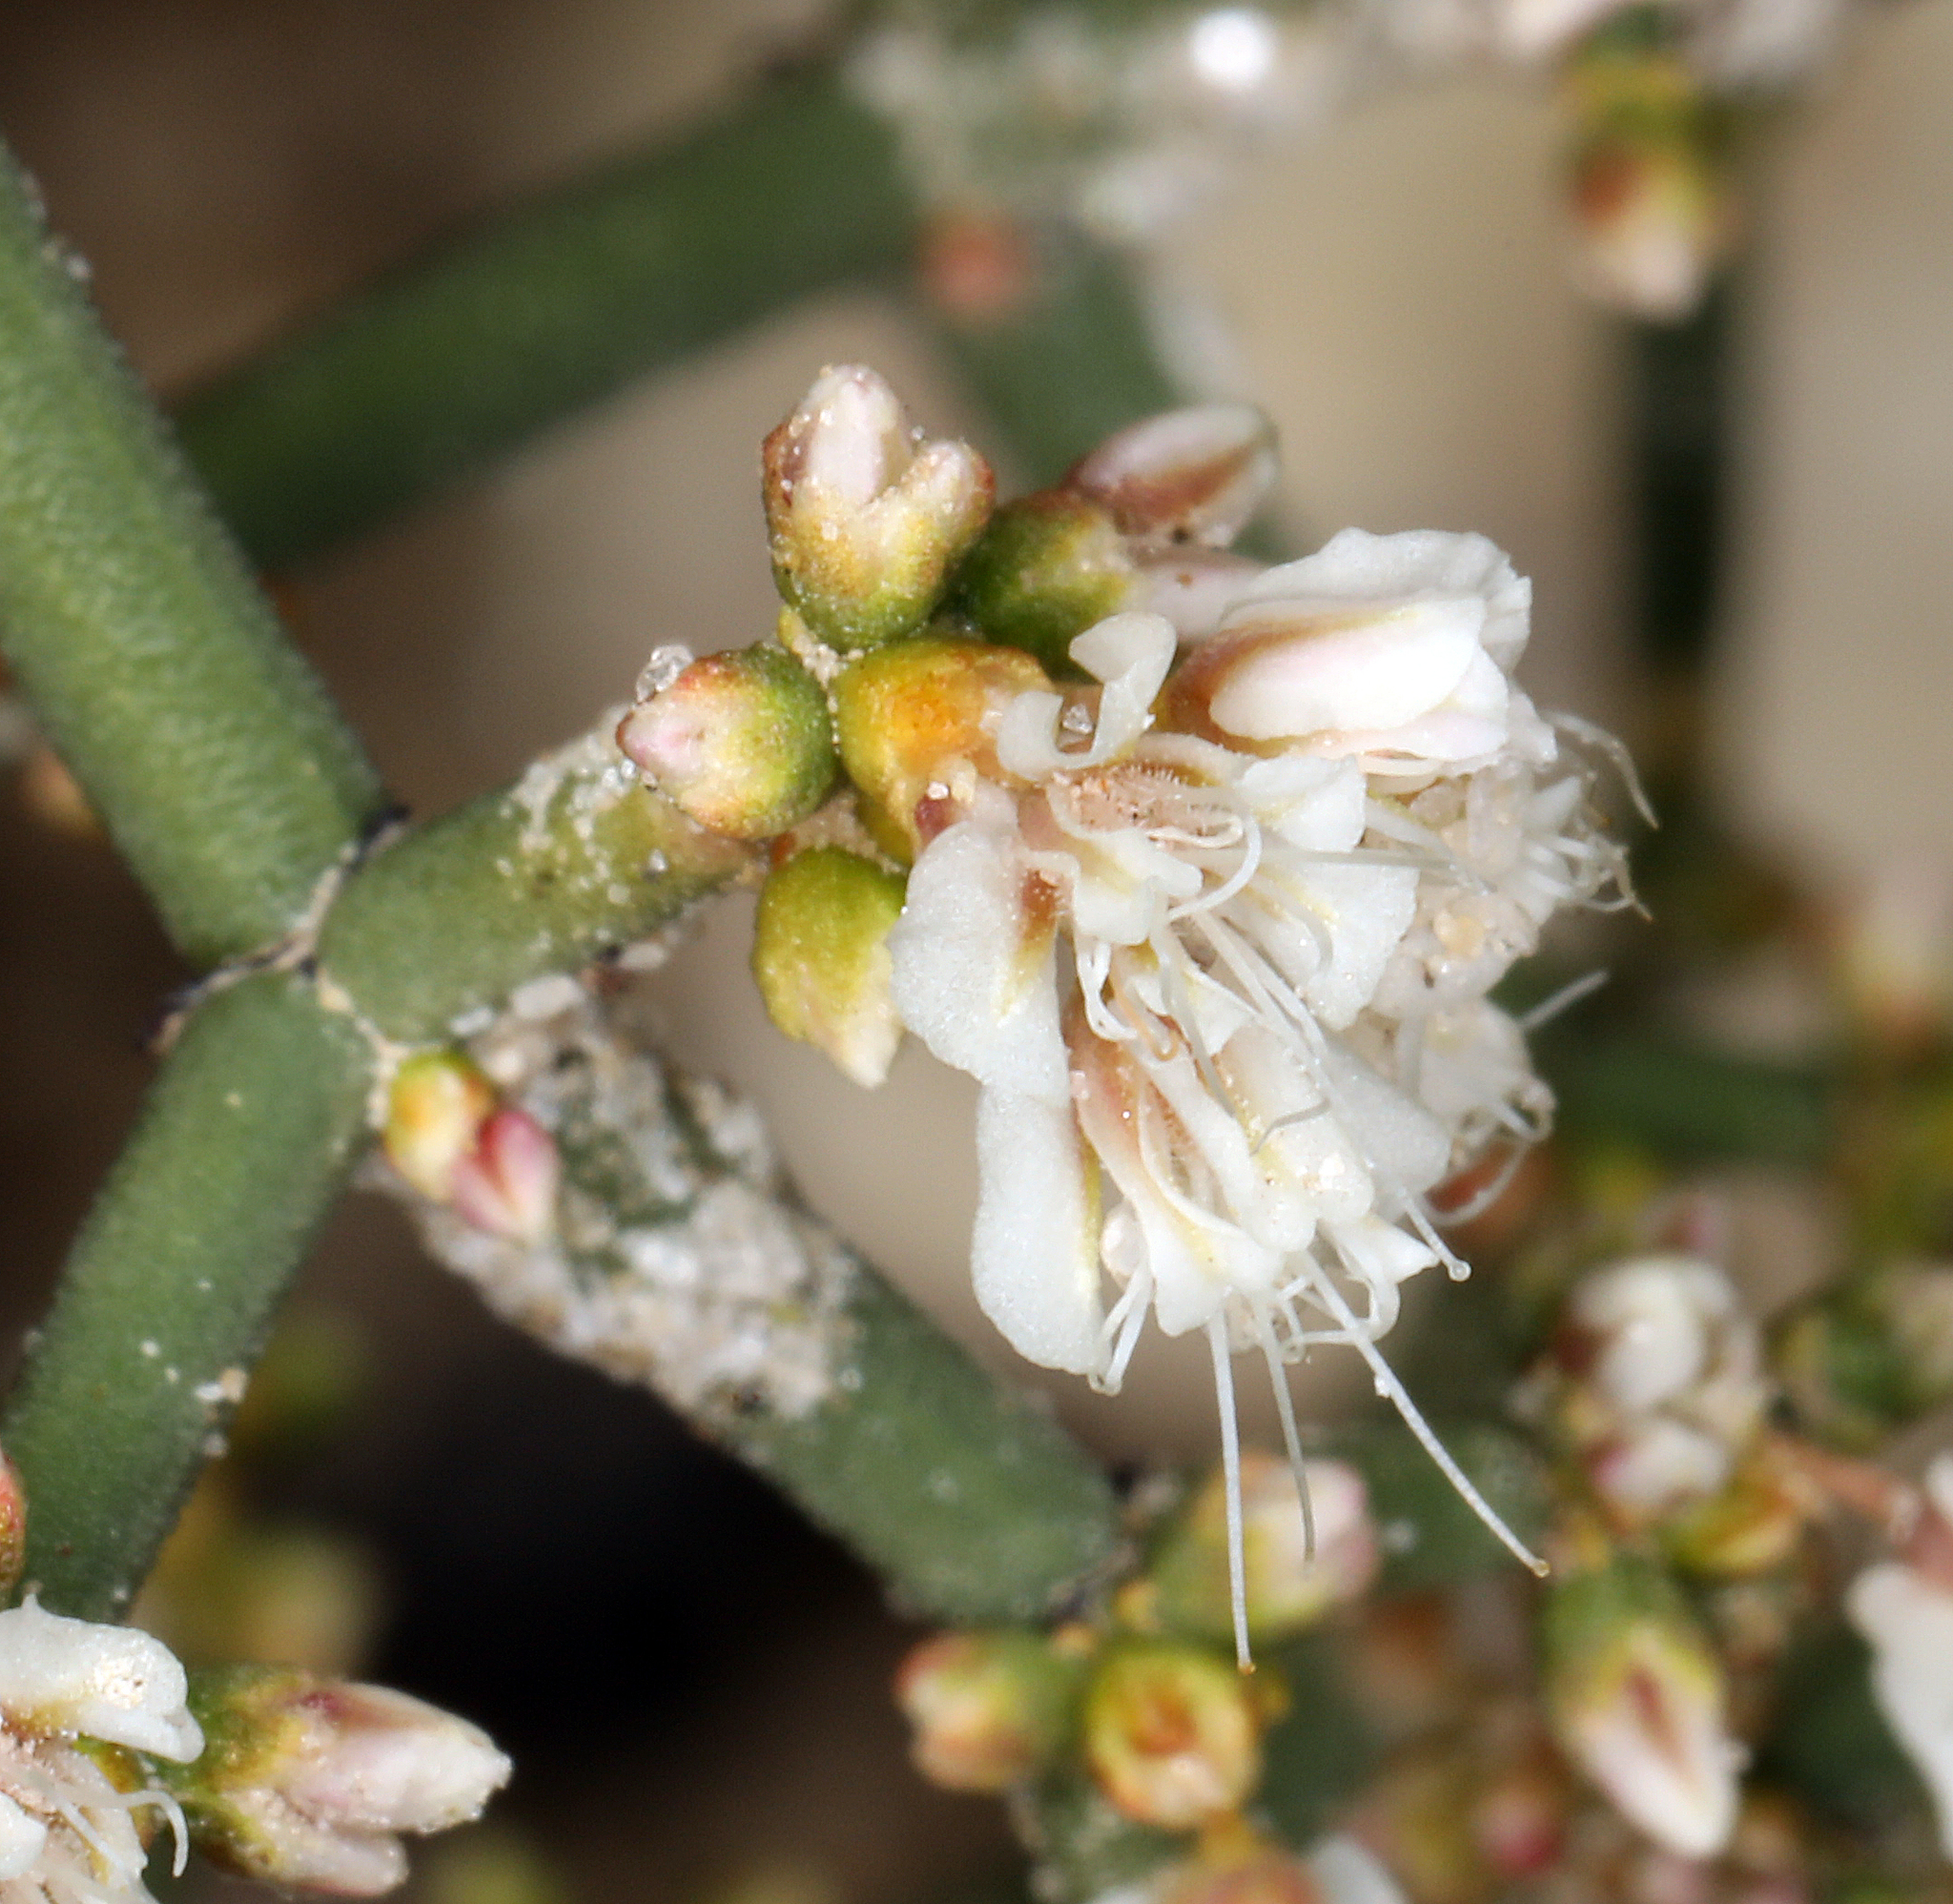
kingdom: Plantae
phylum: Tracheophyta
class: Magnoliopsida
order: Caryophyllales
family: Polygonaceae
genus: Eriogonum
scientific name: Eriogonum heermannii
